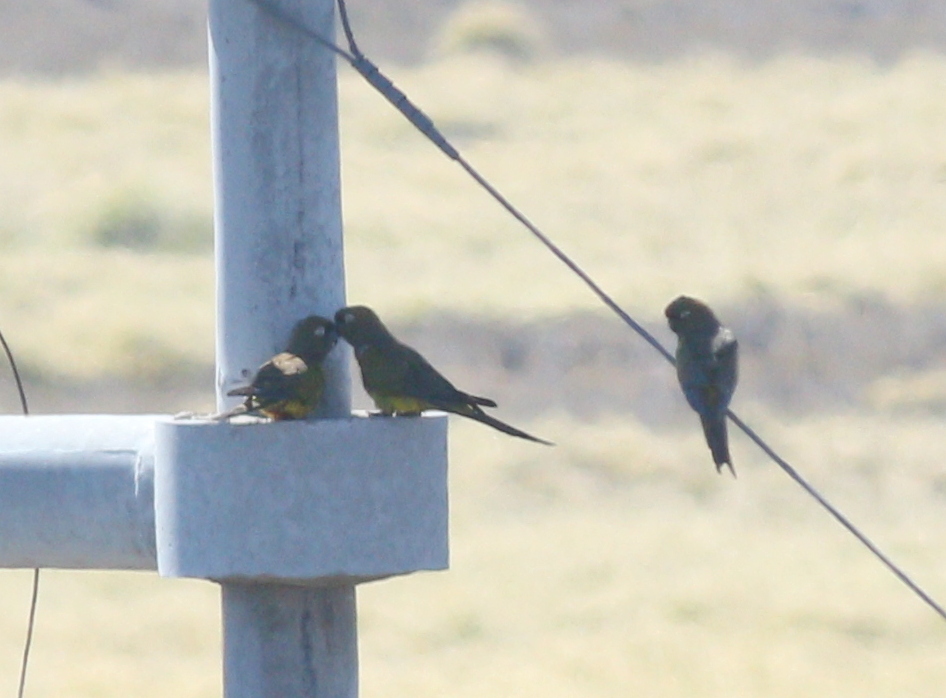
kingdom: Animalia
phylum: Chordata
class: Aves
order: Psittaciformes
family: Psittacidae
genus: Cyanoliseus
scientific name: Cyanoliseus patagonus
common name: Burrowing parrot
